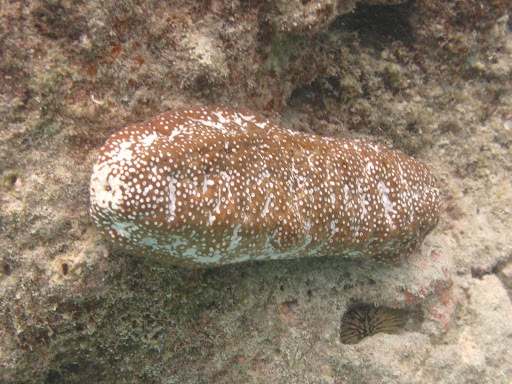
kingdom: Animalia
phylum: Echinodermata
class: Holothuroidea
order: Holothuriida
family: Holothuriidae
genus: Actinopyga
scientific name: Actinopyga varians
